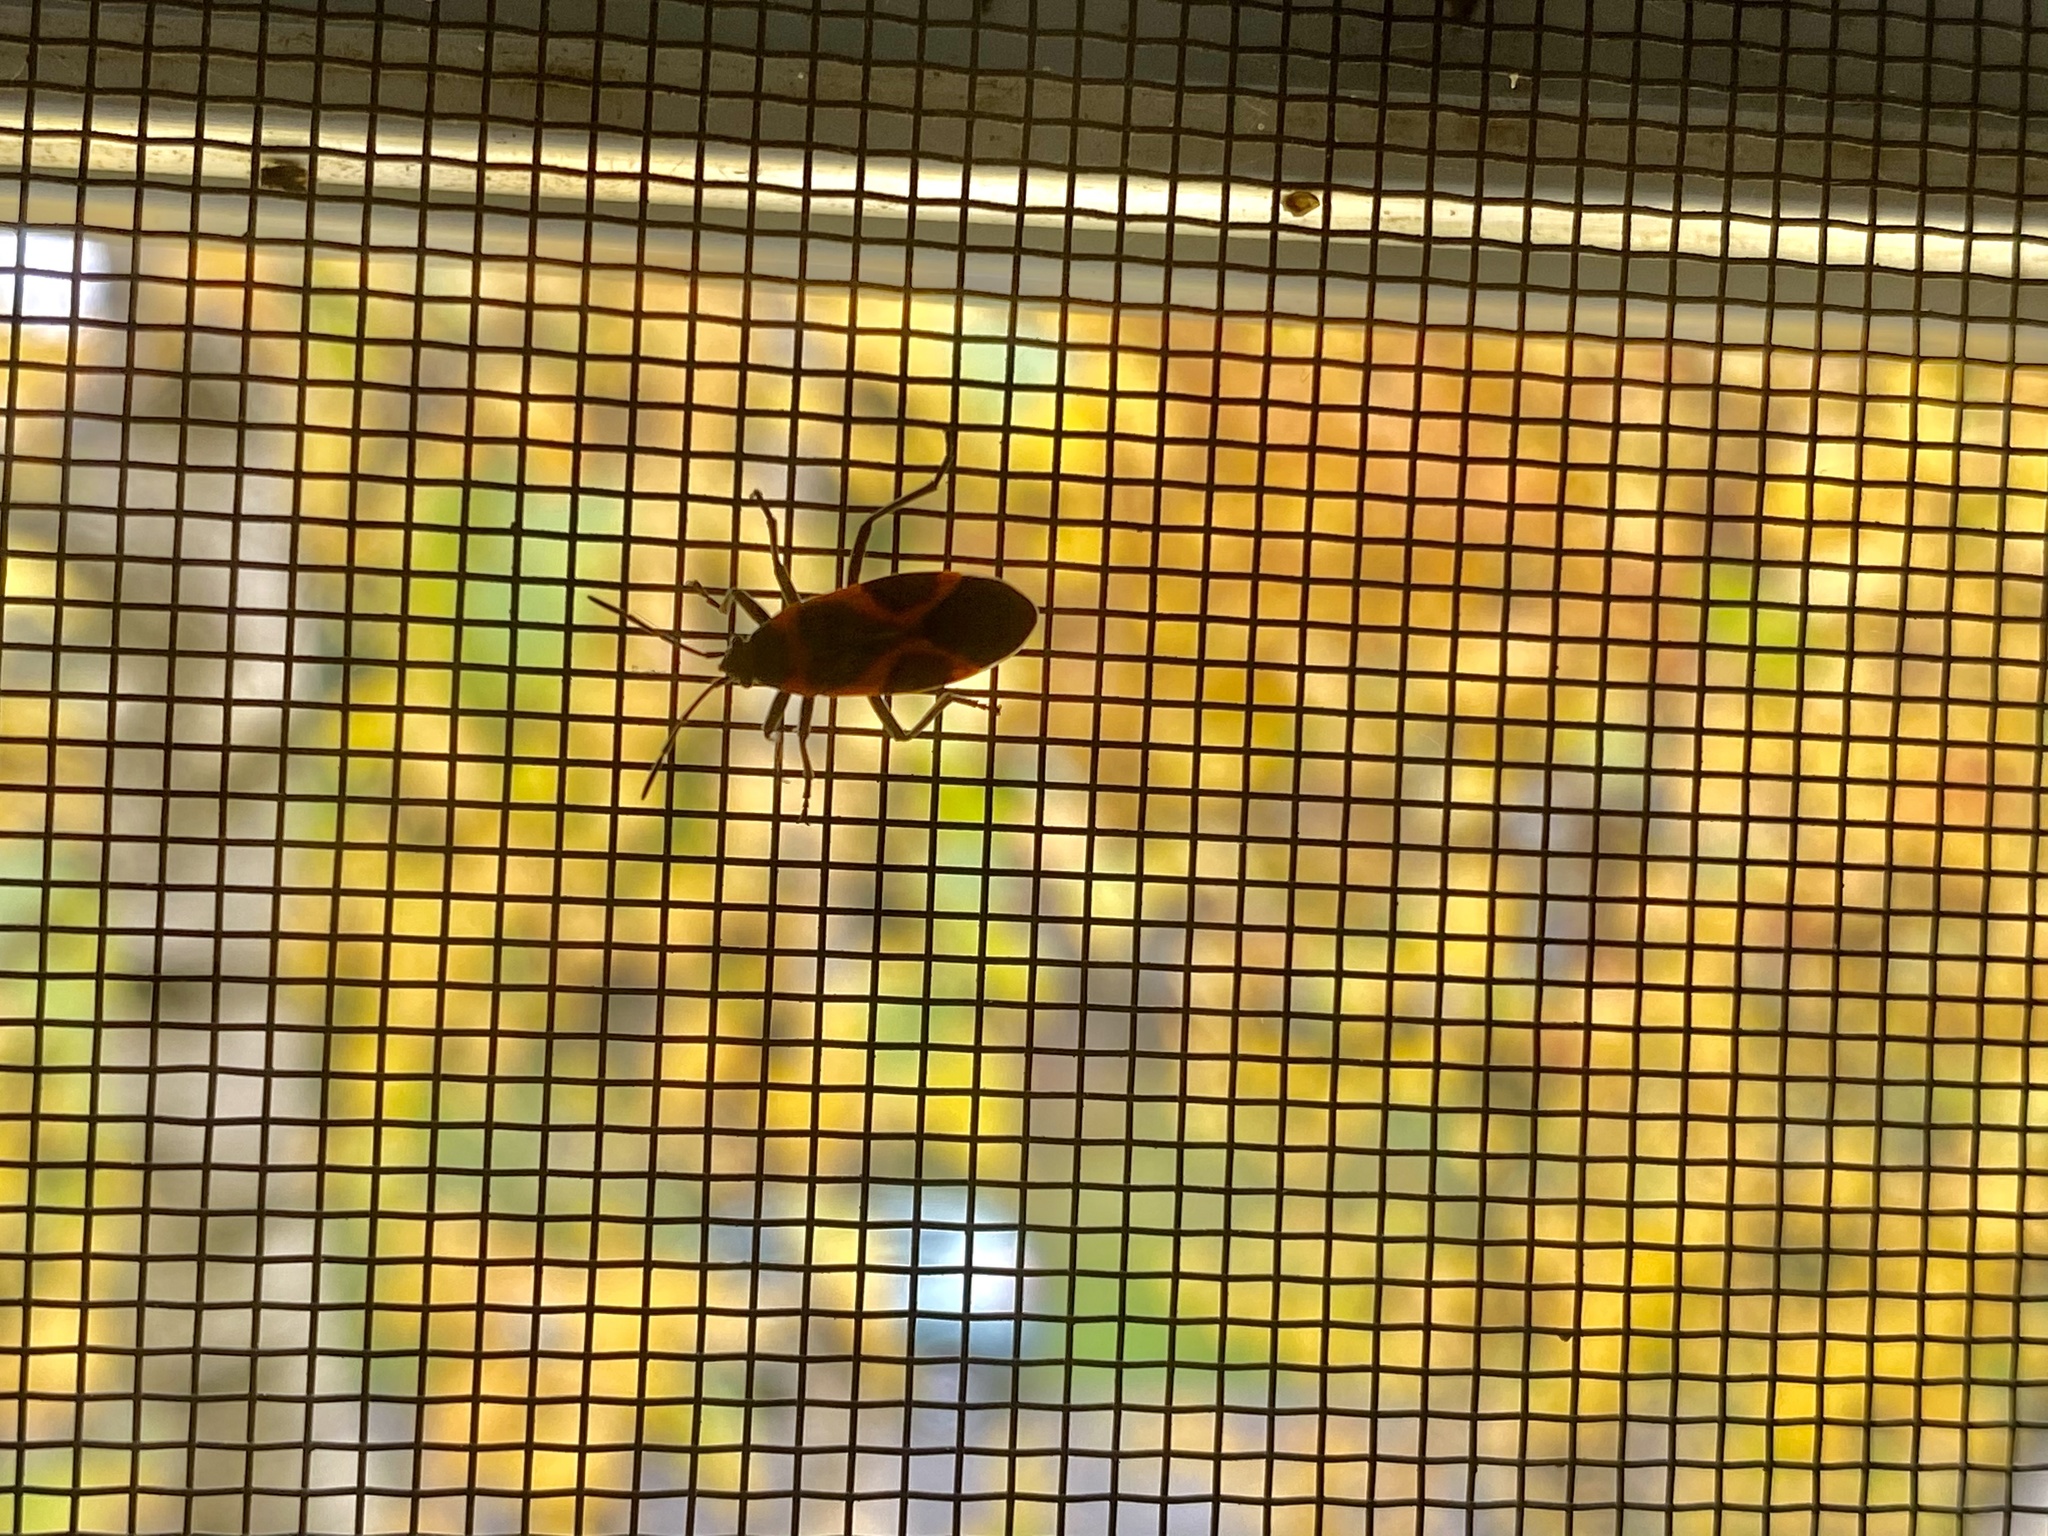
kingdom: Animalia
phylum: Arthropoda
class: Insecta
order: Hemiptera
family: Lygaeidae
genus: Lygaeus
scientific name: Lygaeus kalmii
